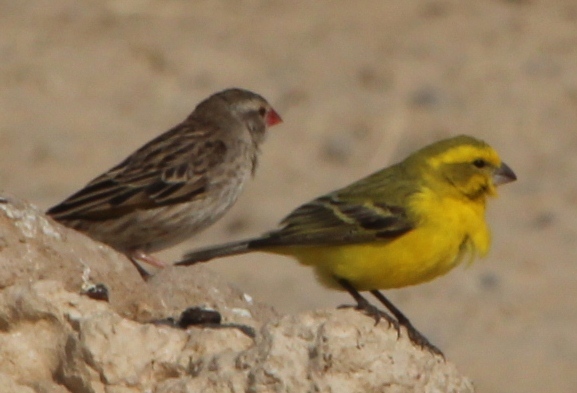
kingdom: Animalia
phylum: Chordata
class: Aves
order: Passeriformes
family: Fringillidae
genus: Crithagra
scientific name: Crithagra flaviventris
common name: Yellow canary
